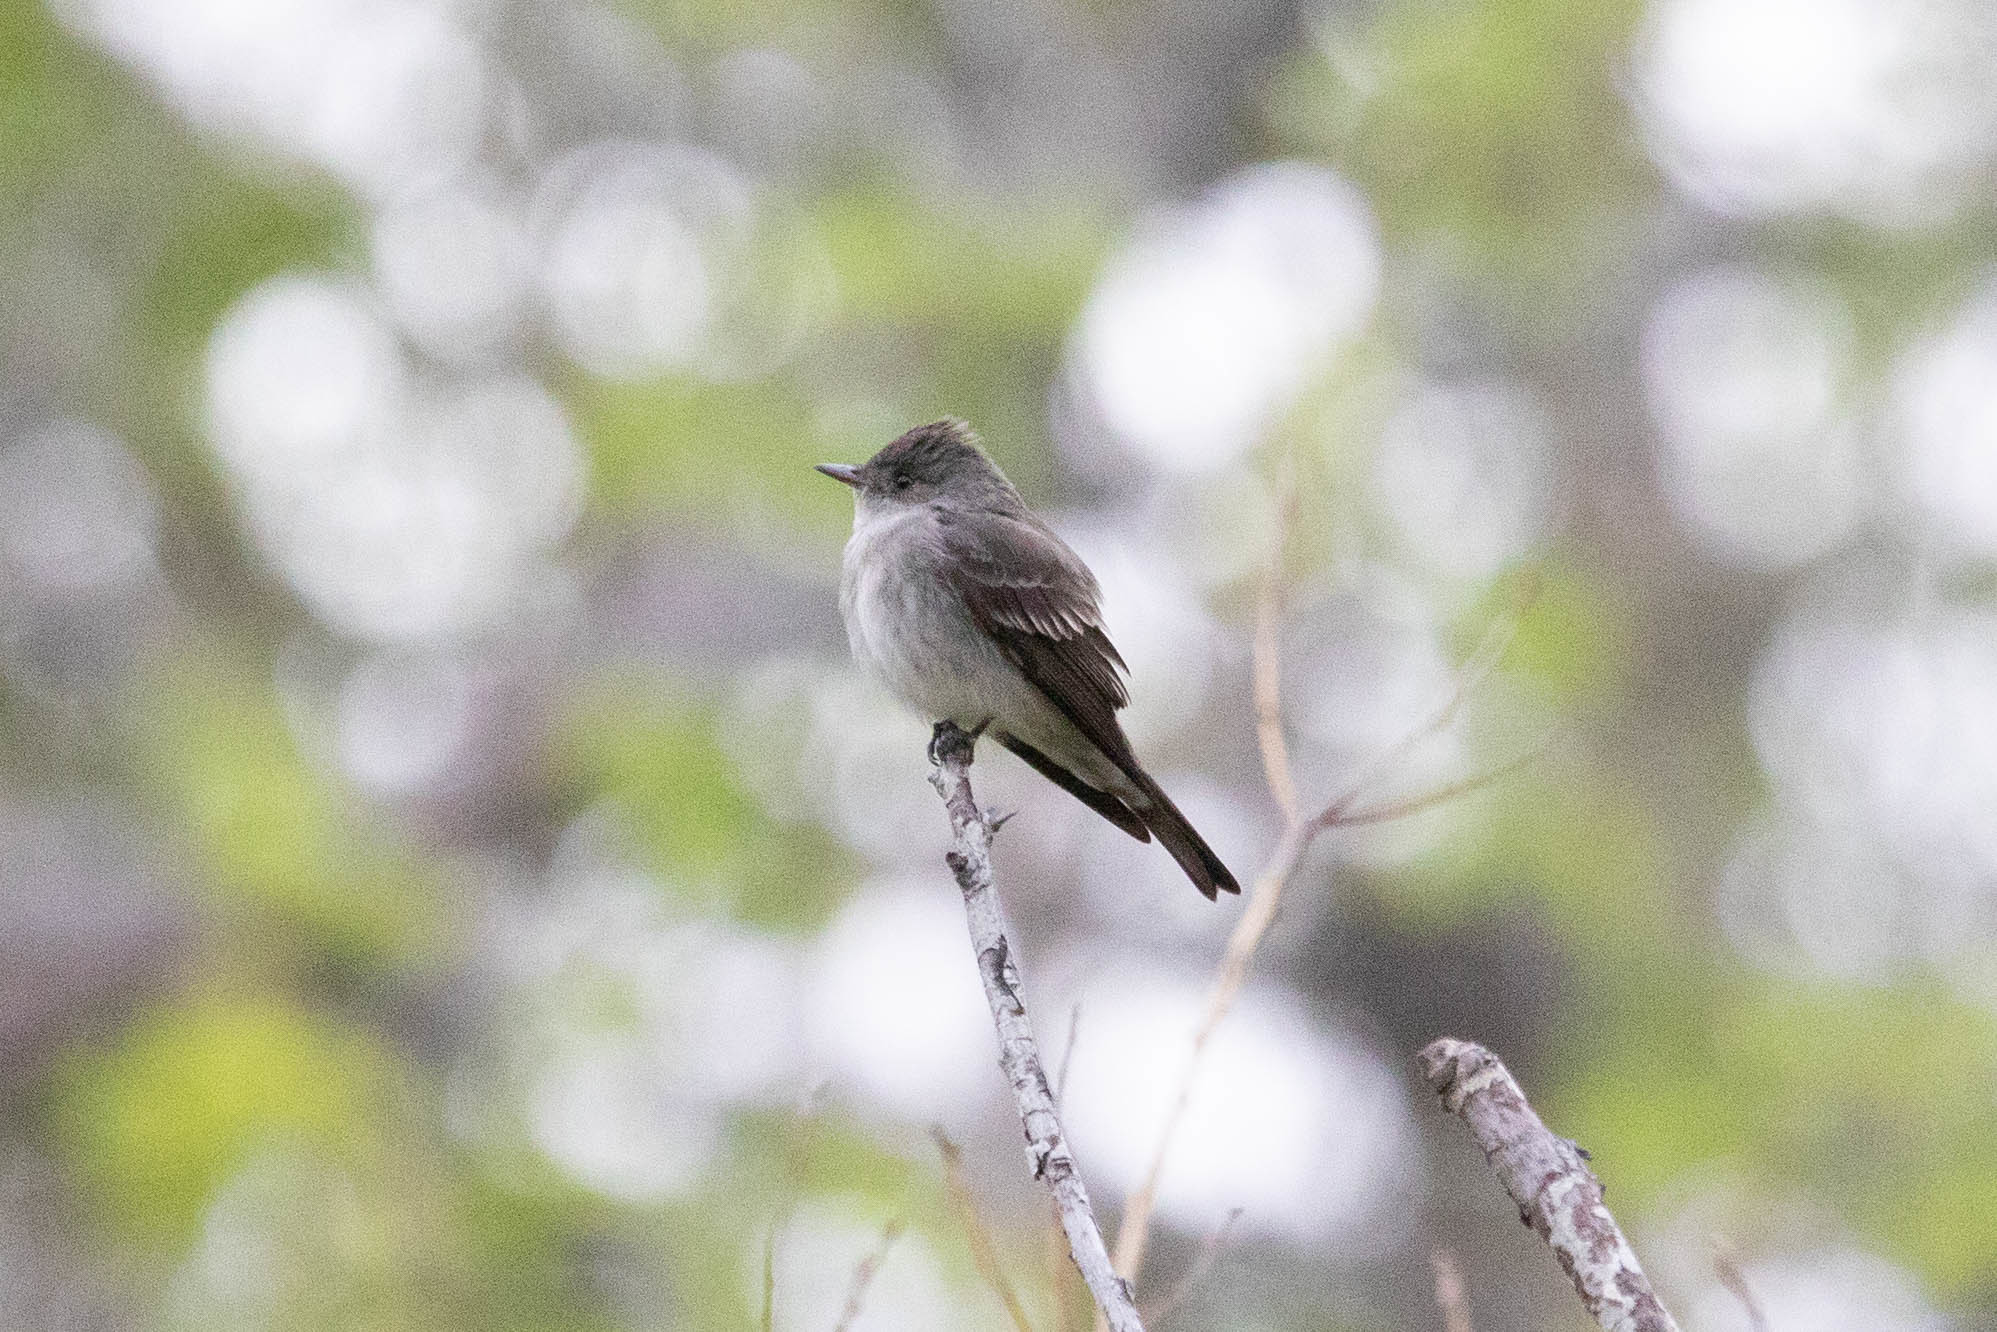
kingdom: Animalia
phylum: Chordata
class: Aves
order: Passeriformes
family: Tyrannidae
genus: Contopus
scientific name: Contopus sordidulus
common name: Western wood-pewee
